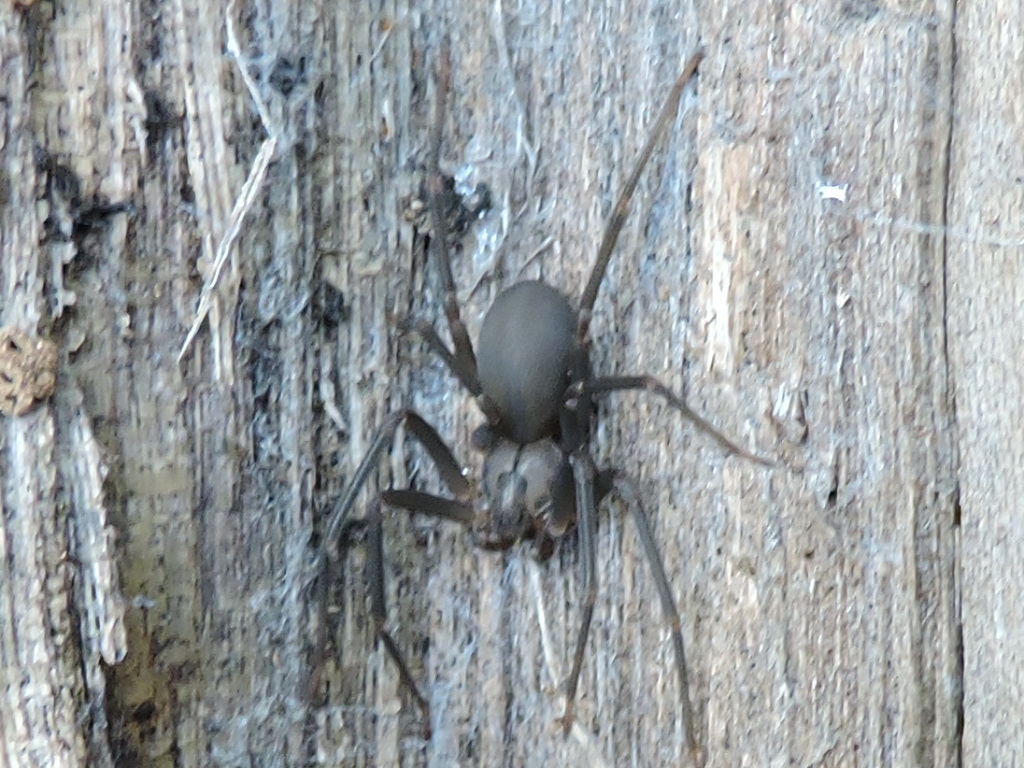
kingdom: Animalia
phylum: Arthropoda
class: Arachnida
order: Araneae
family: Sicariidae
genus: Loxosceles
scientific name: Loxosceles reclusa
